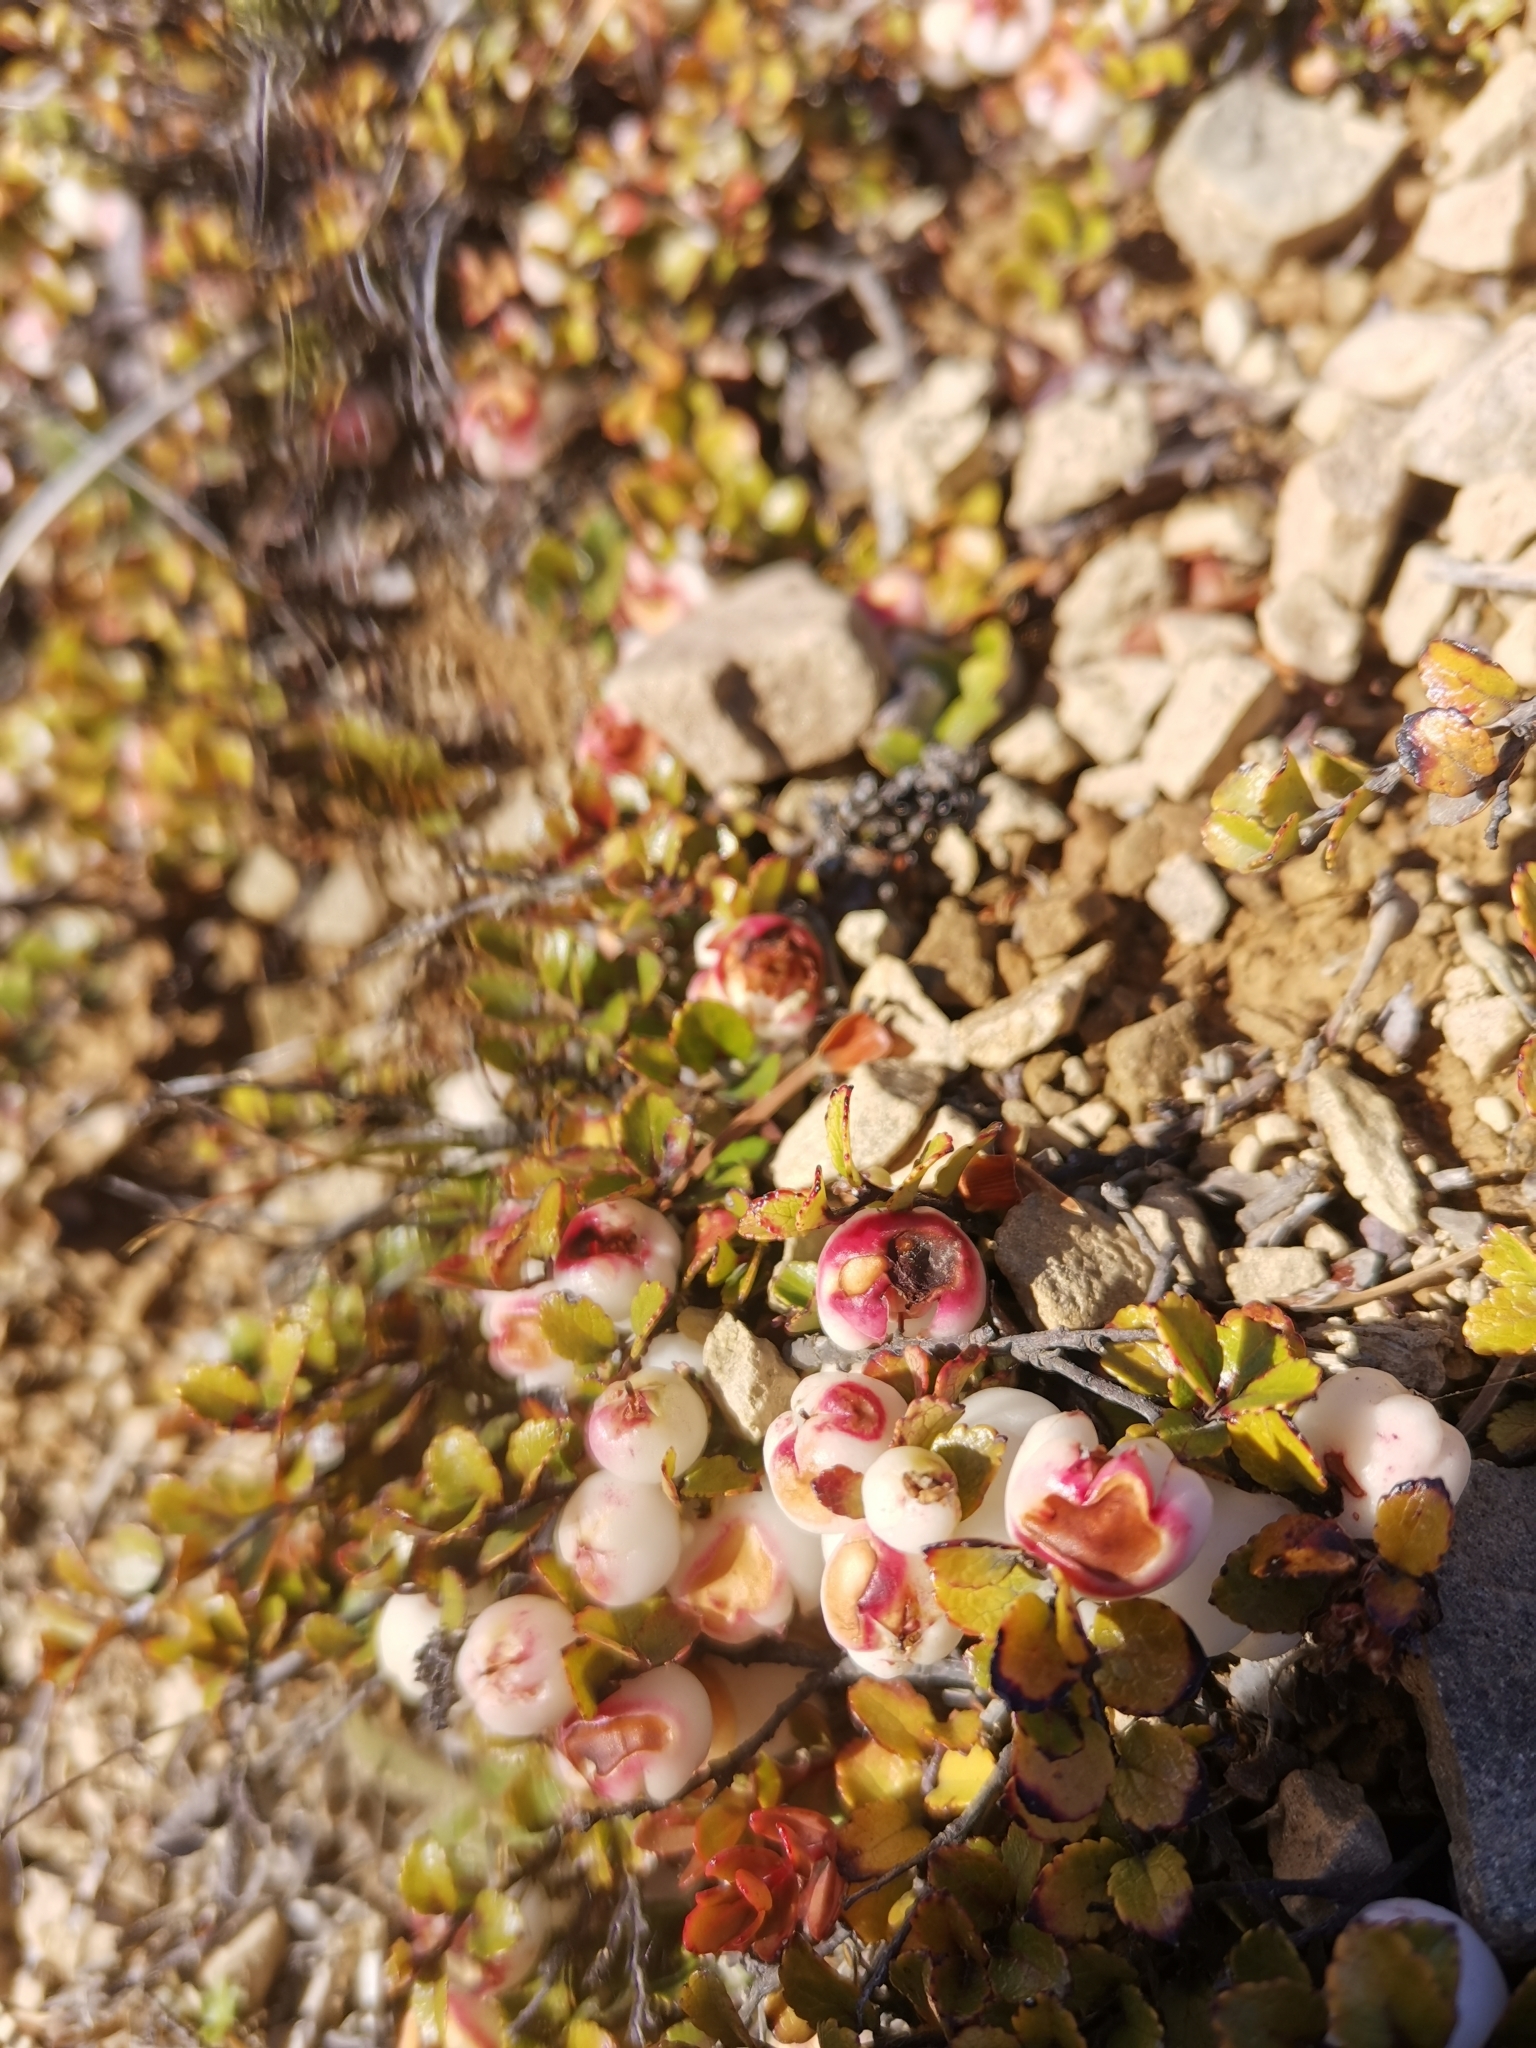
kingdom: Plantae
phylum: Tracheophyta
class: Magnoliopsida
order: Ericales
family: Ericaceae
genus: Gaultheria
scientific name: Gaultheria depressa
